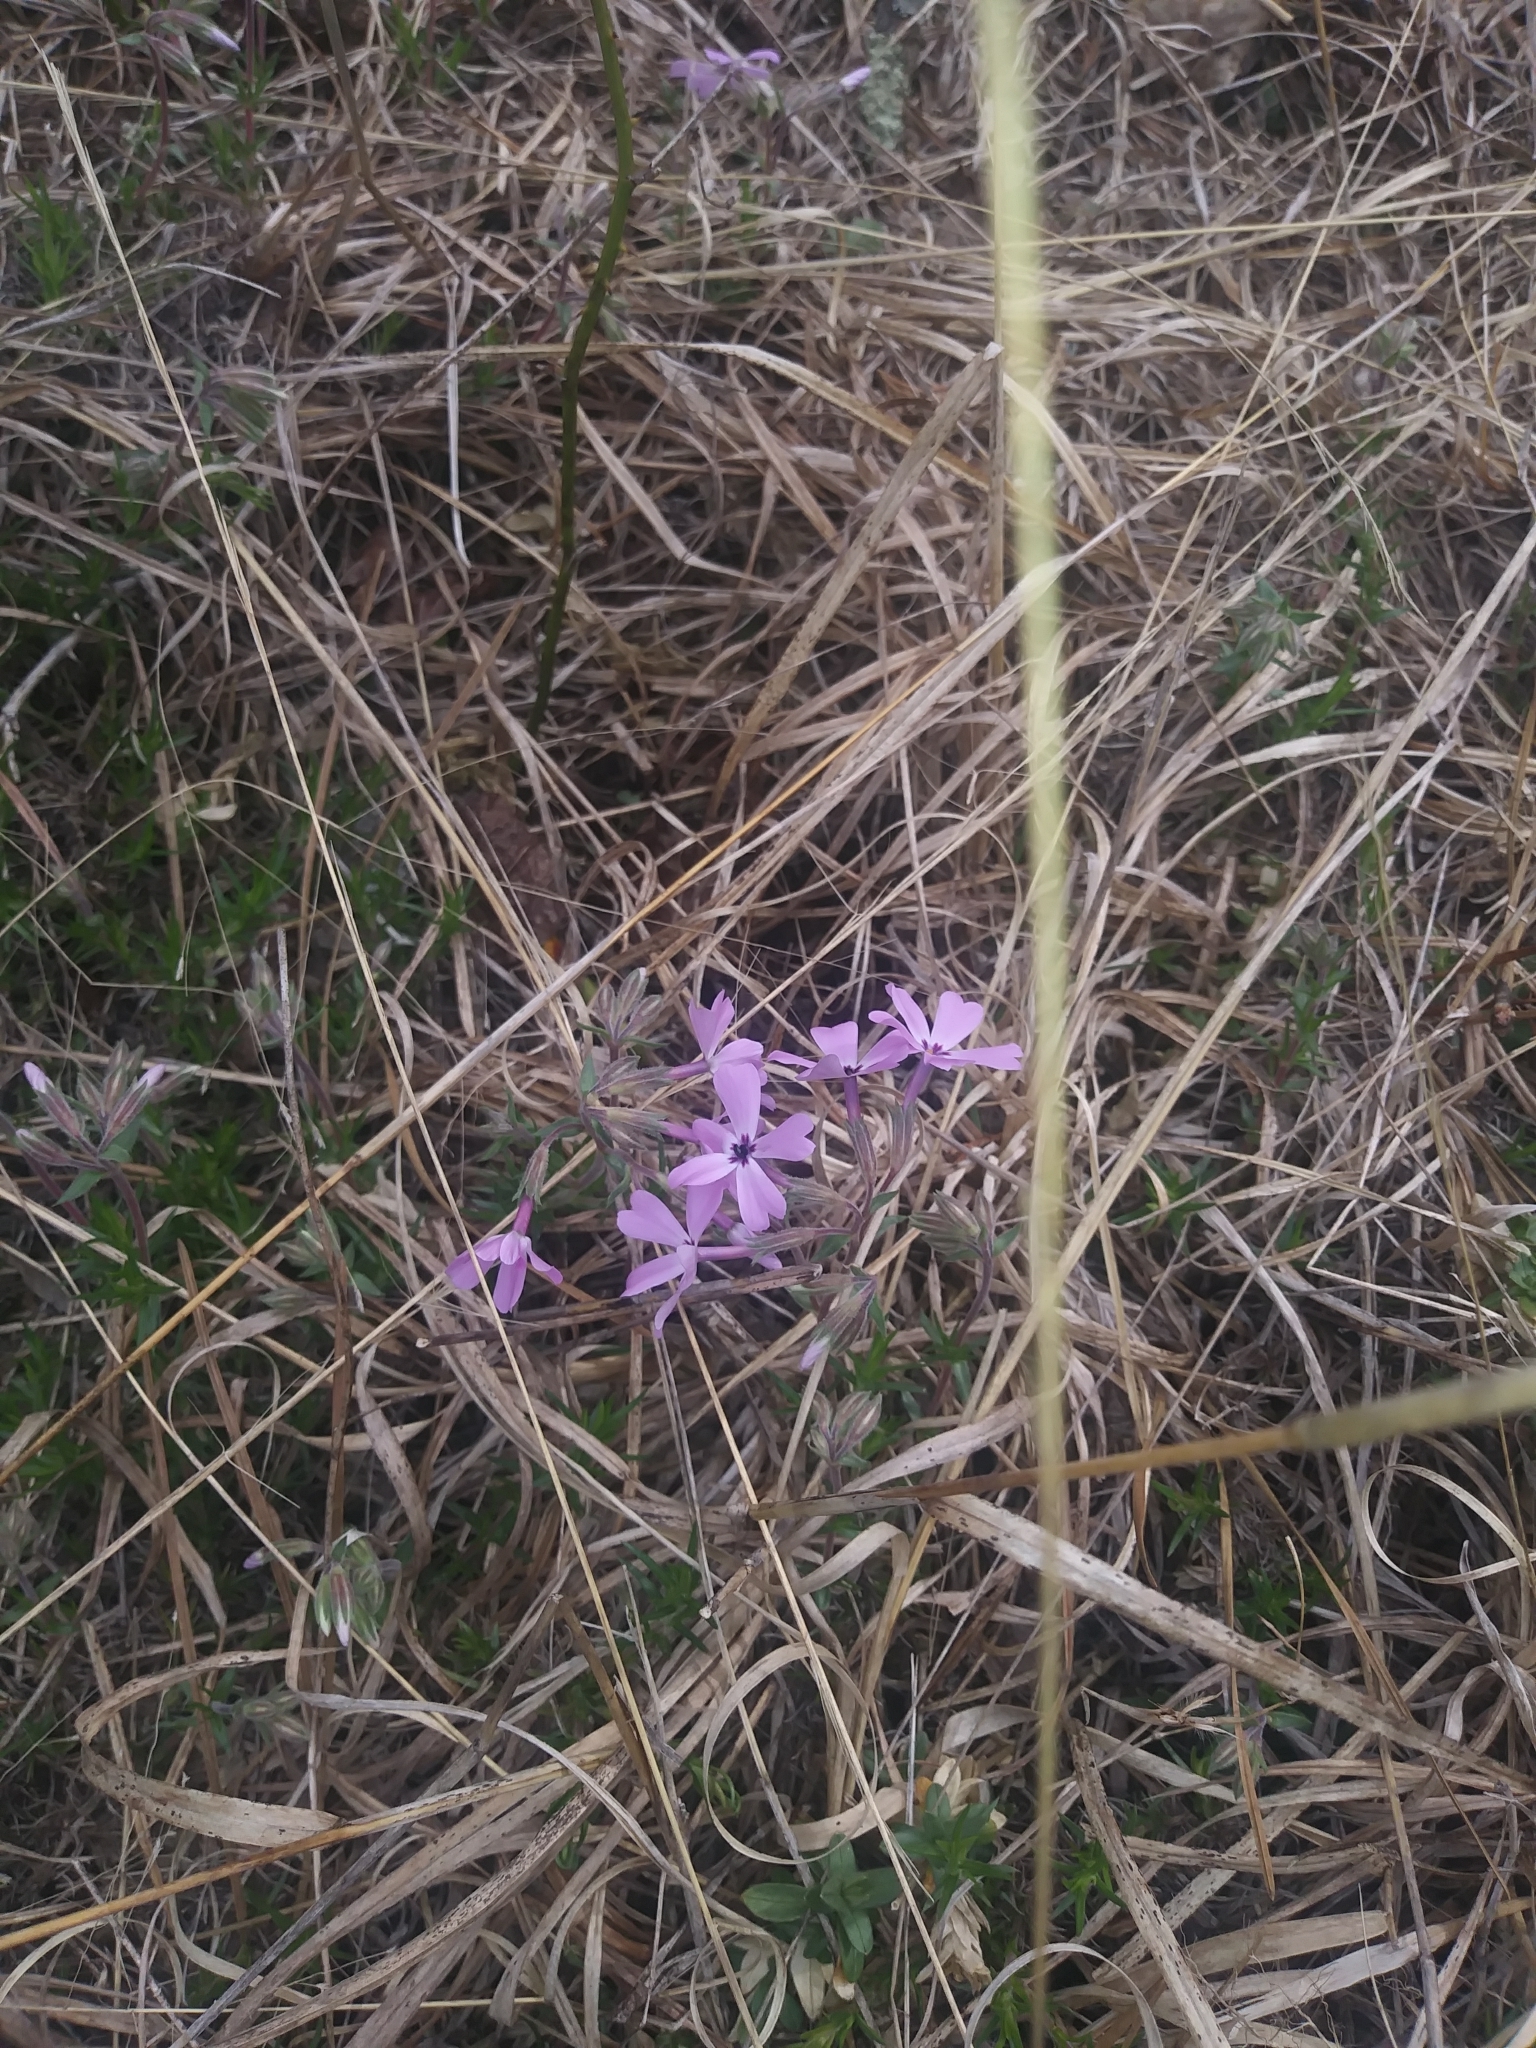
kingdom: Plantae
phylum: Tracheophyta
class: Magnoliopsida
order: Ericales
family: Polemoniaceae
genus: Phlox
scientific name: Phlox subulata
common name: Moss phlox
